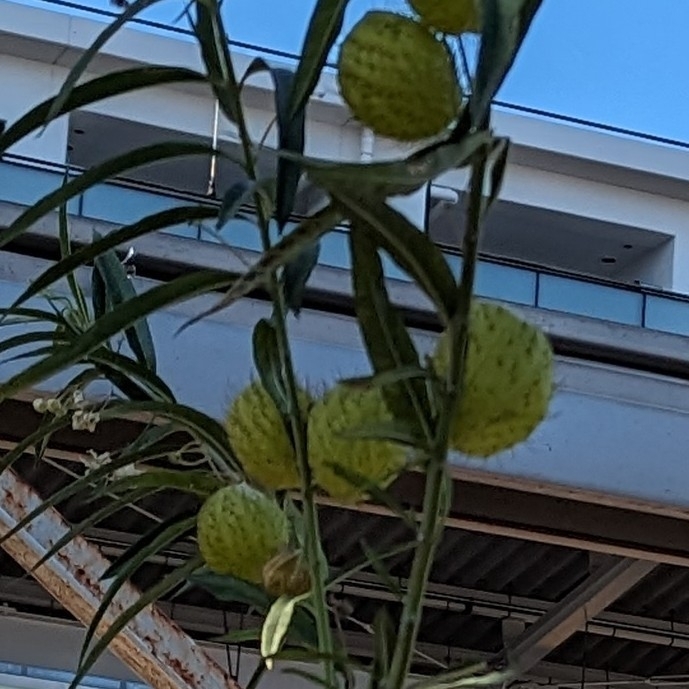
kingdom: Plantae
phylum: Tracheophyta
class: Magnoliopsida
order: Gentianales
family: Apocynaceae
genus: Gomphocarpus
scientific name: Gomphocarpus physocarpus
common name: Balloon cotton bush
